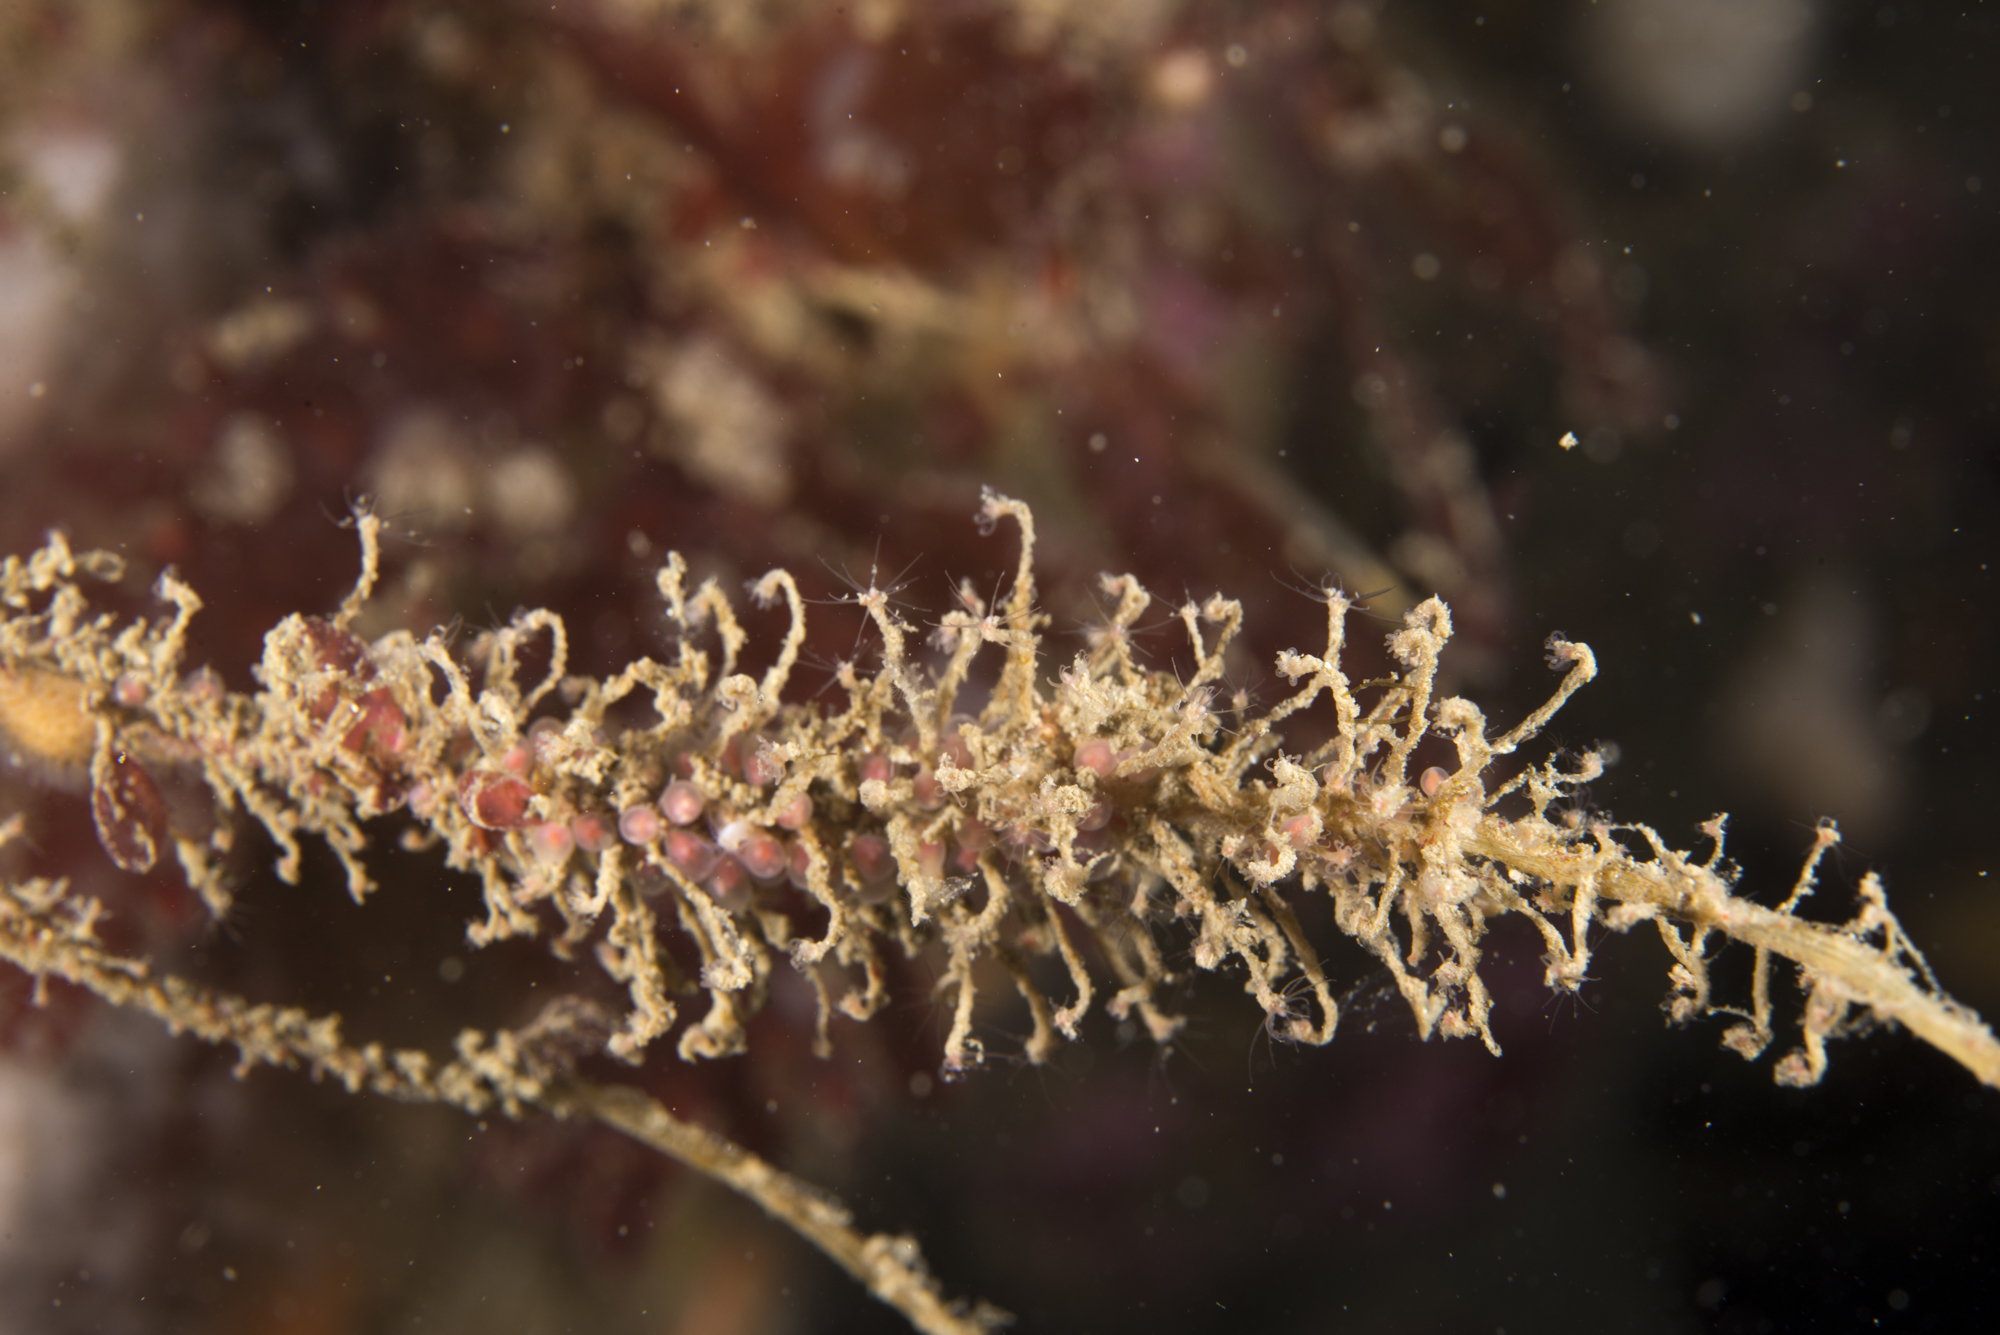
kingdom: Animalia
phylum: Cnidaria
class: Hydrozoa
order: Anthoathecata
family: Bougainvilliidae
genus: Rhizorhagium
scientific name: Rhizorhagium roseum
